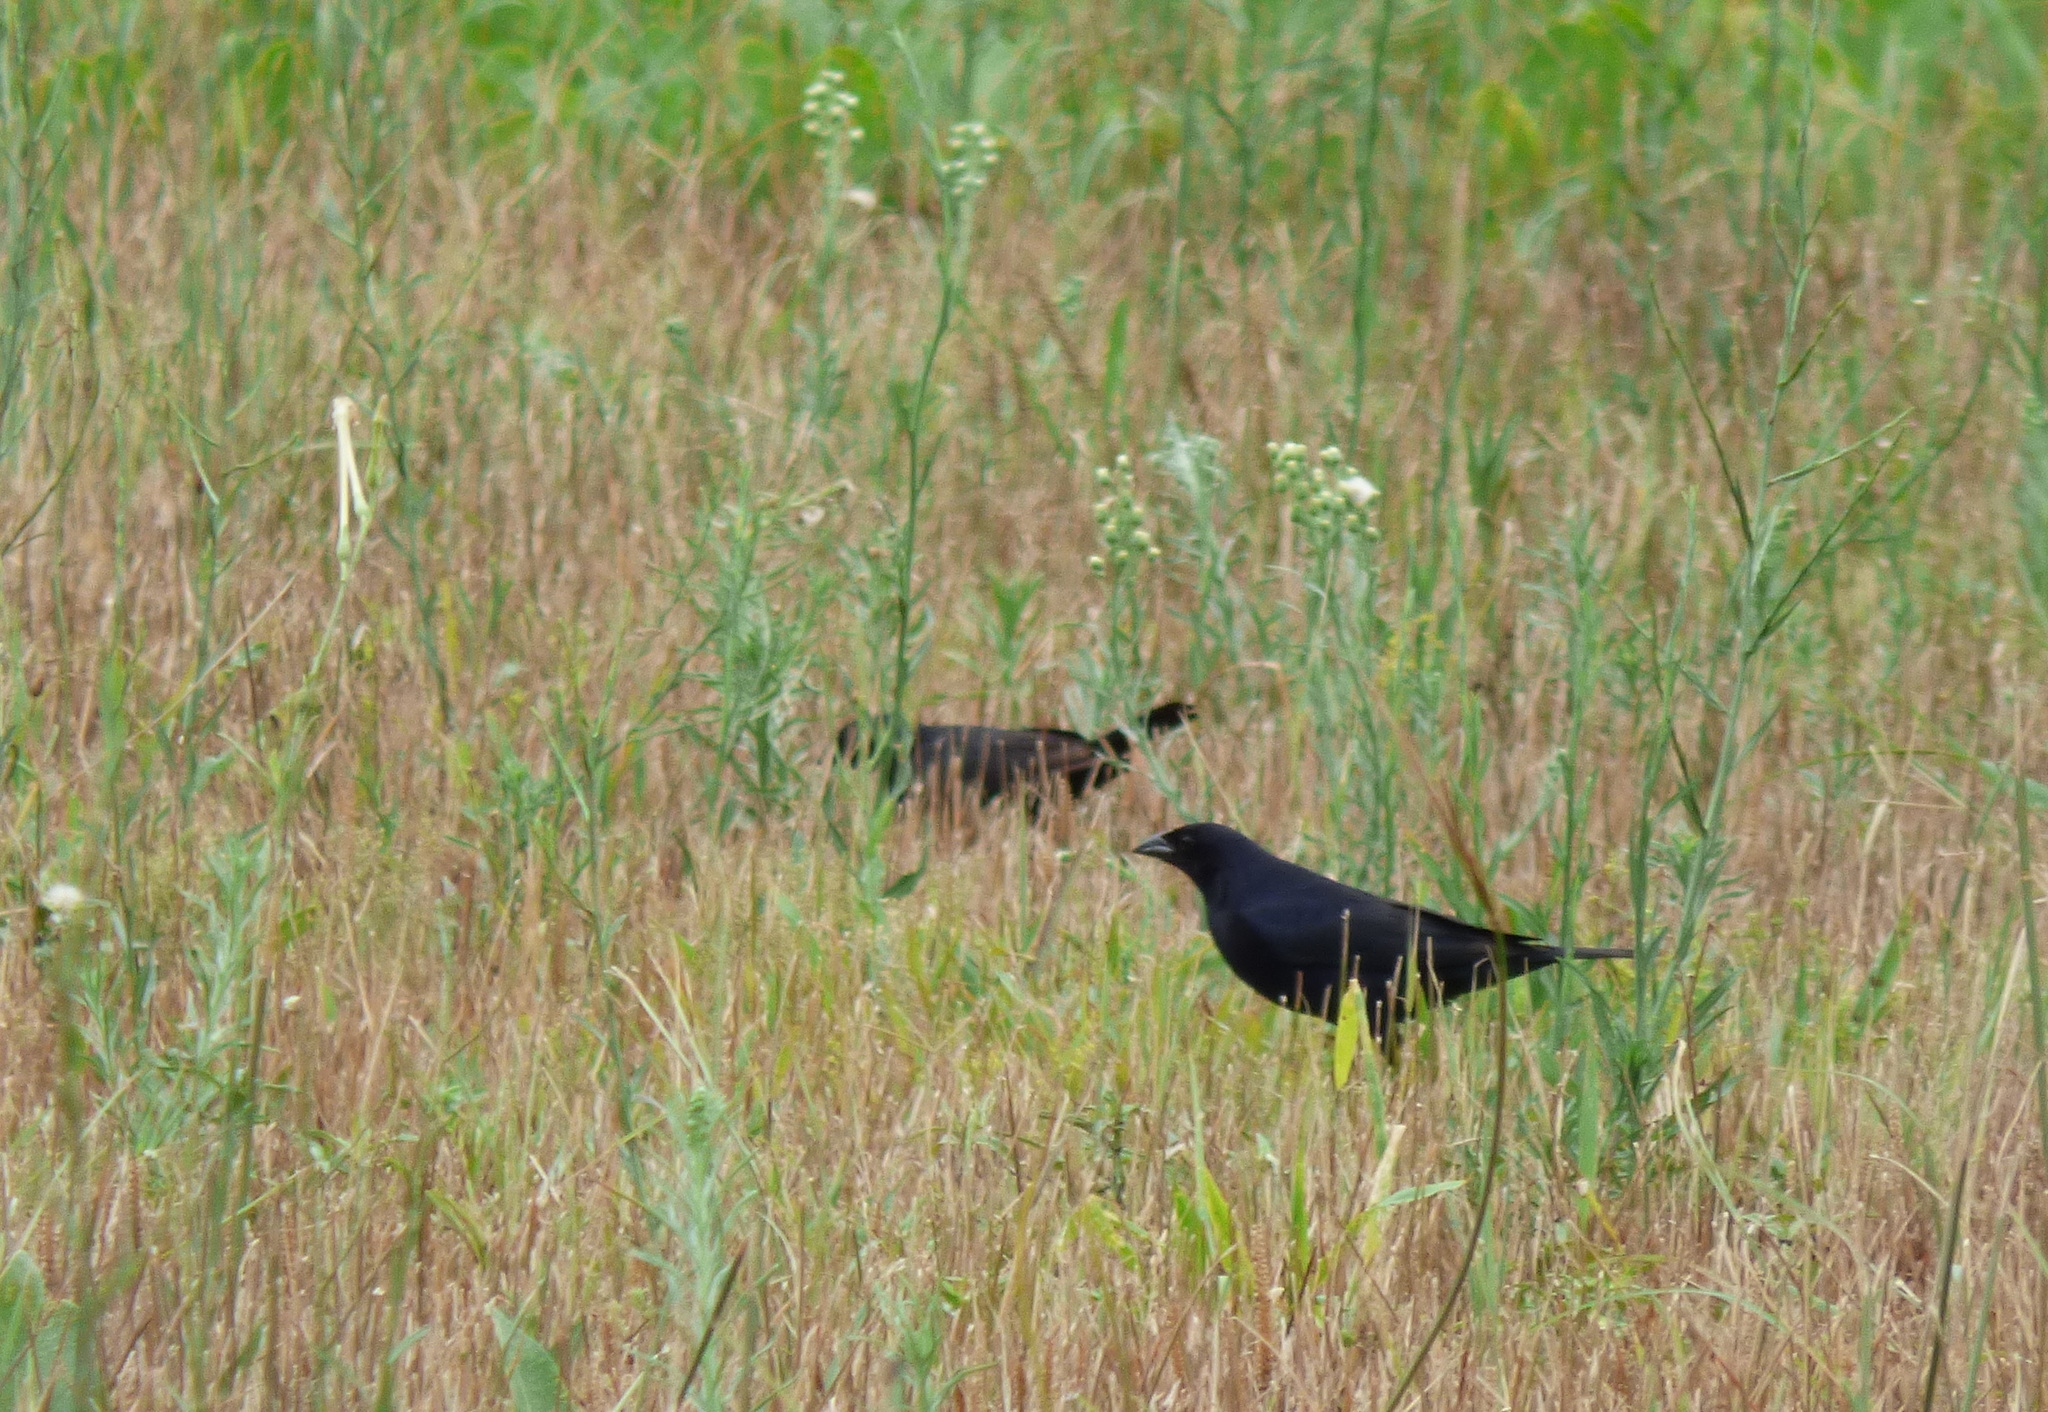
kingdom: Animalia
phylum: Chordata
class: Aves
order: Passeriformes
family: Icteridae
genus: Molothrus
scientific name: Molothrus bonariensis
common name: Shiny cowbird
